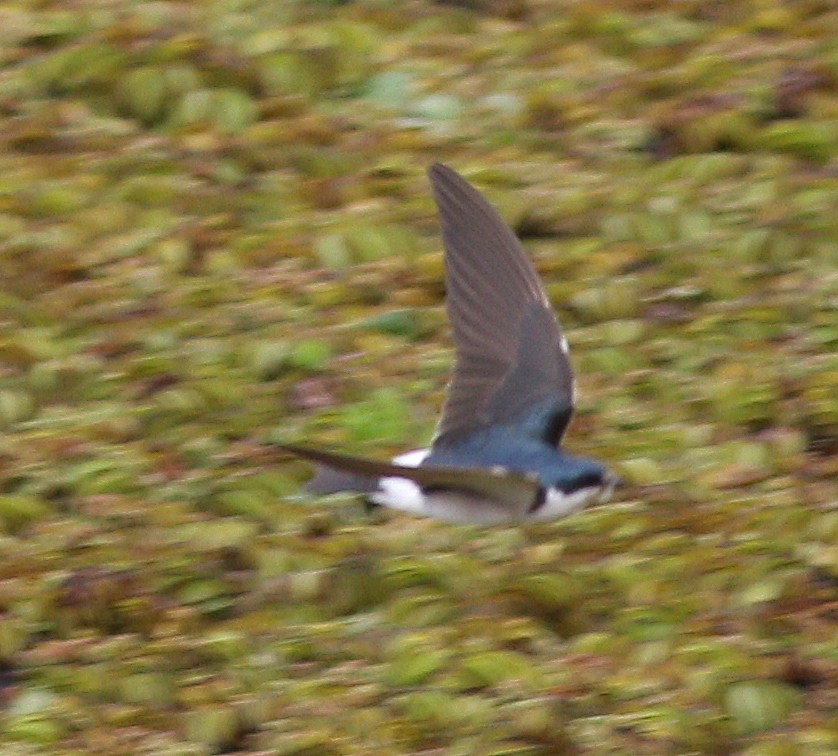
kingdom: Animalia
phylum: Chordata
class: Aves
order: Passeriformes
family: Hirundinidae
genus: Tachycineta
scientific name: Tachycineta leucorrhoa
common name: White-rumped swallow
